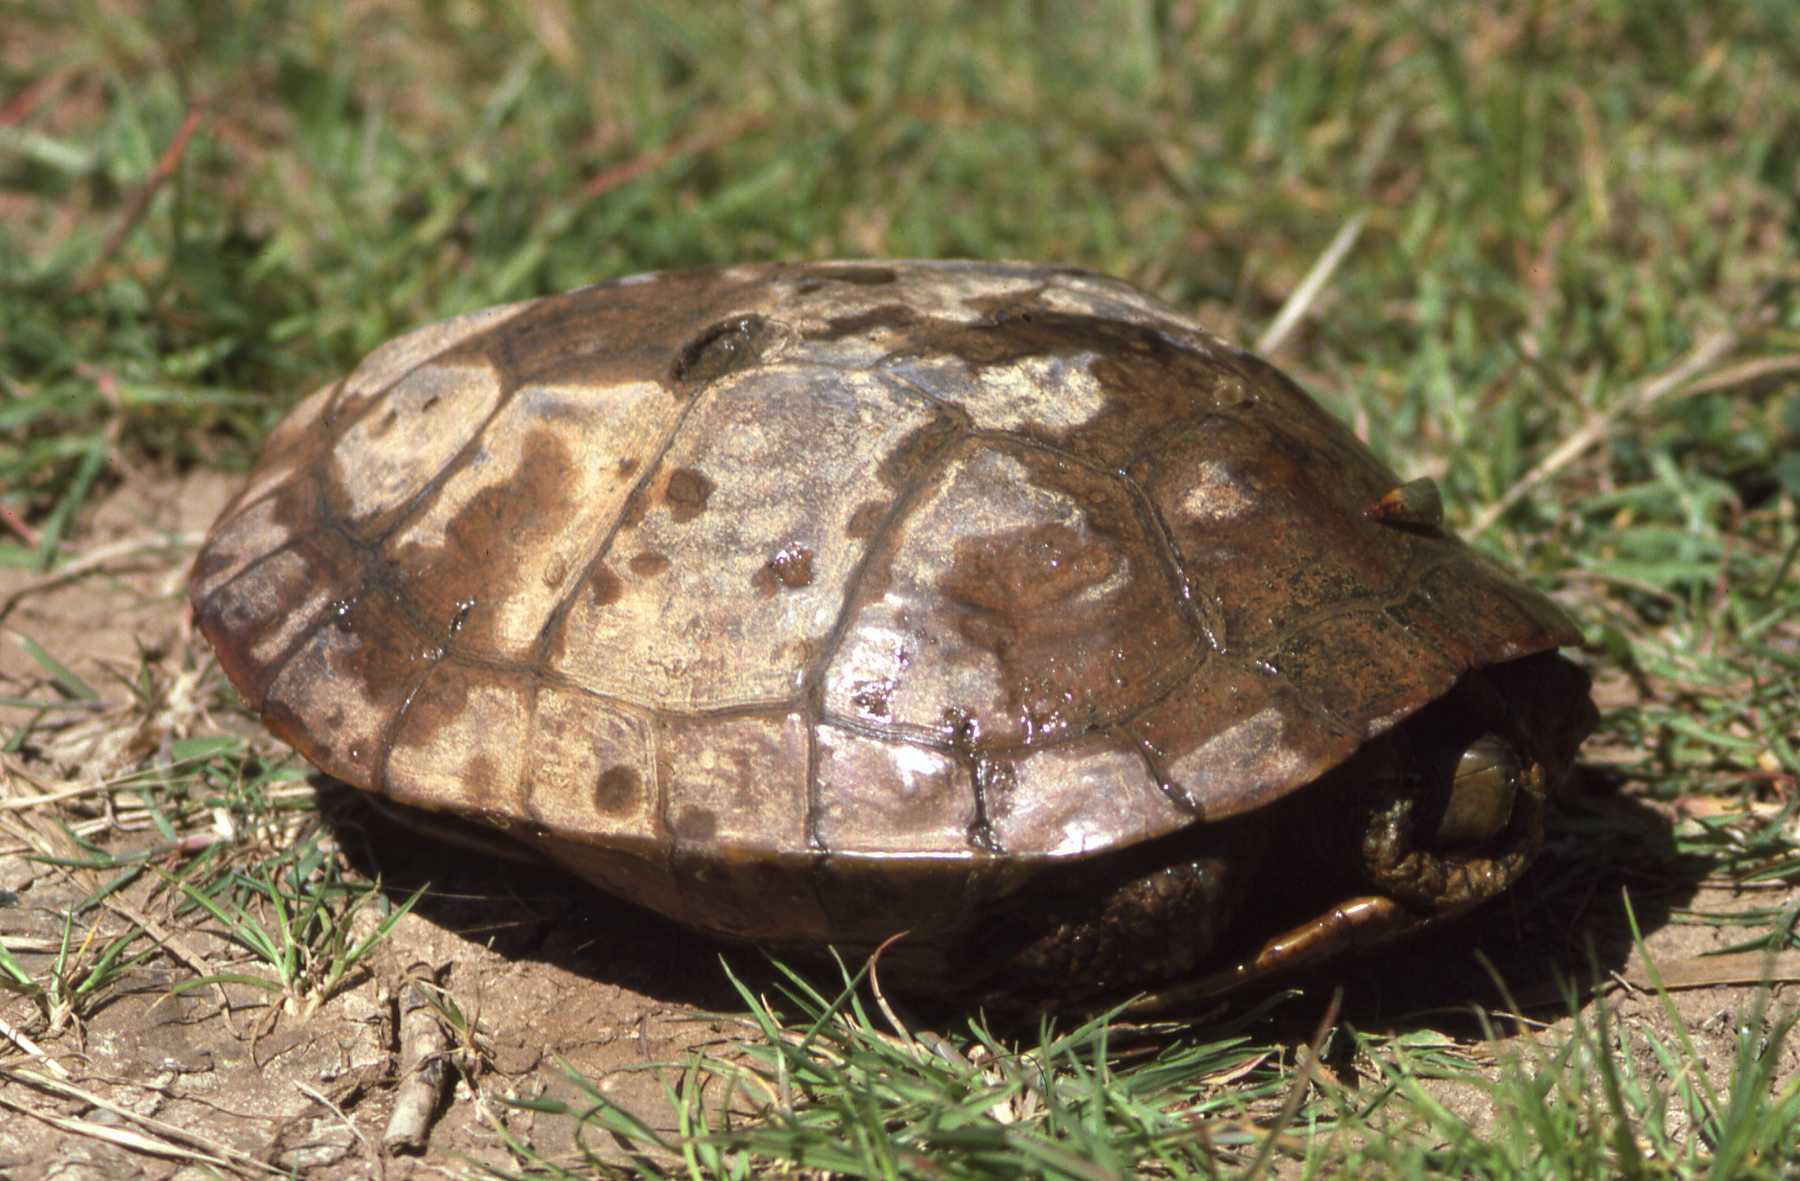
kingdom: Animalia
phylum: Chordata
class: Testudines
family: Geoemydidae
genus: Mauremys
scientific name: Mauremys leprosa
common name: Mediterranean pond turtle
